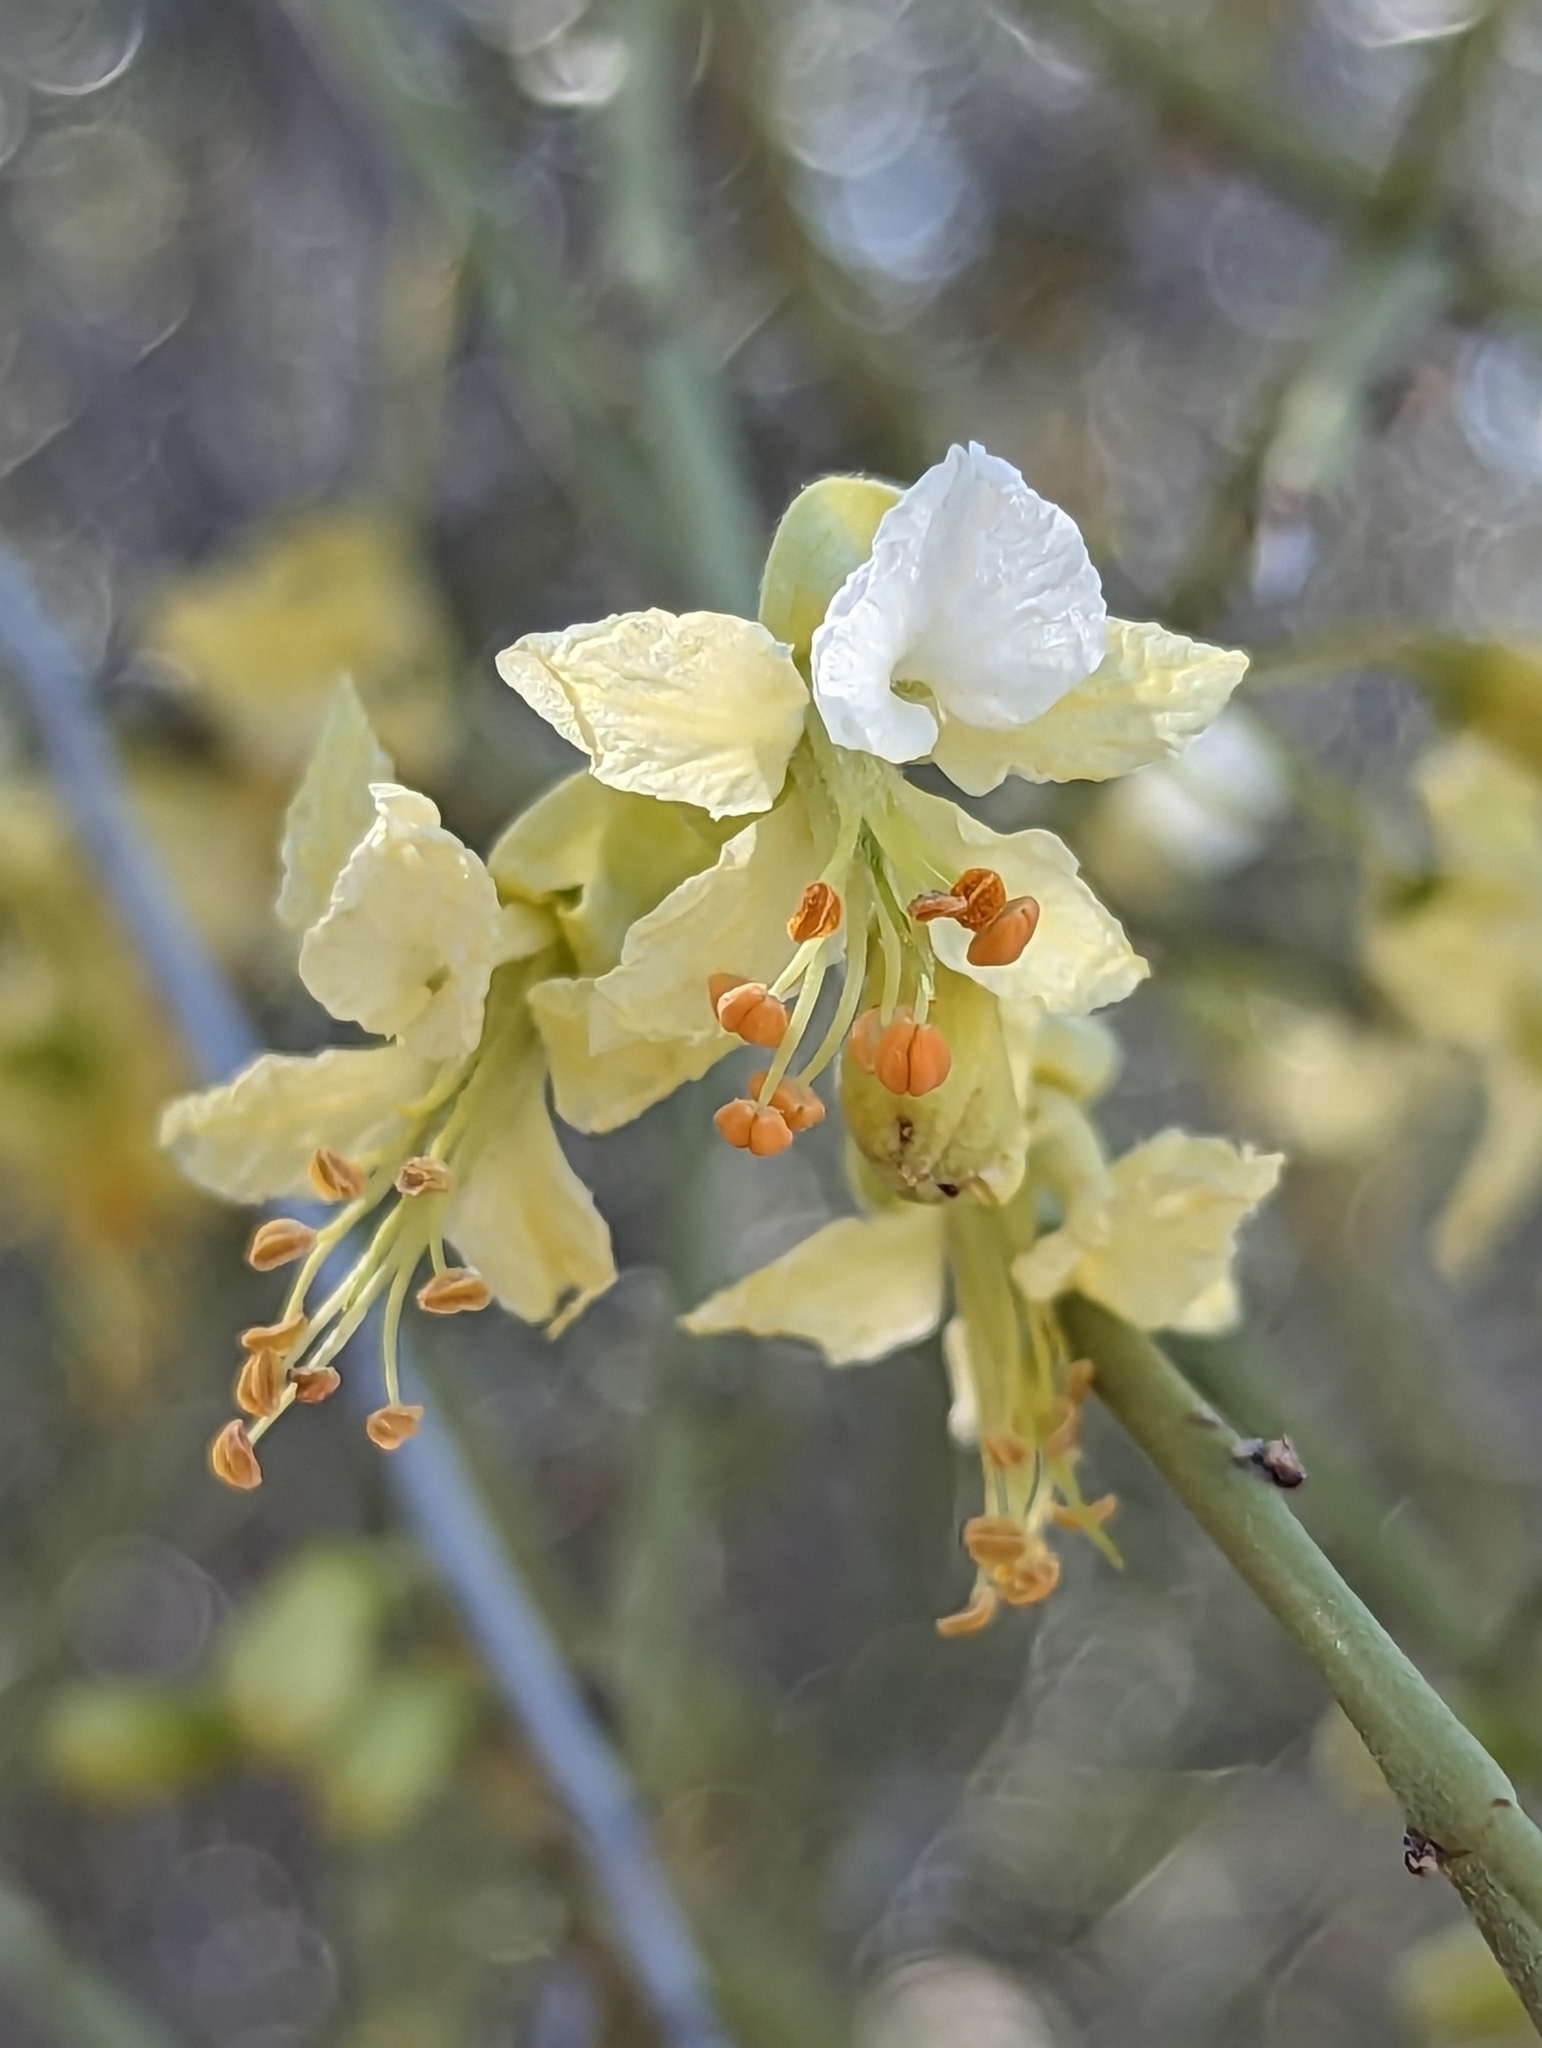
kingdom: Plantae
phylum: Tracheophyta
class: Magnoliopsida
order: Fabales
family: Fabaceae
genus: Parkinsonia
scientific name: Parkinsonia microphylla
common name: Yellow paloverde
